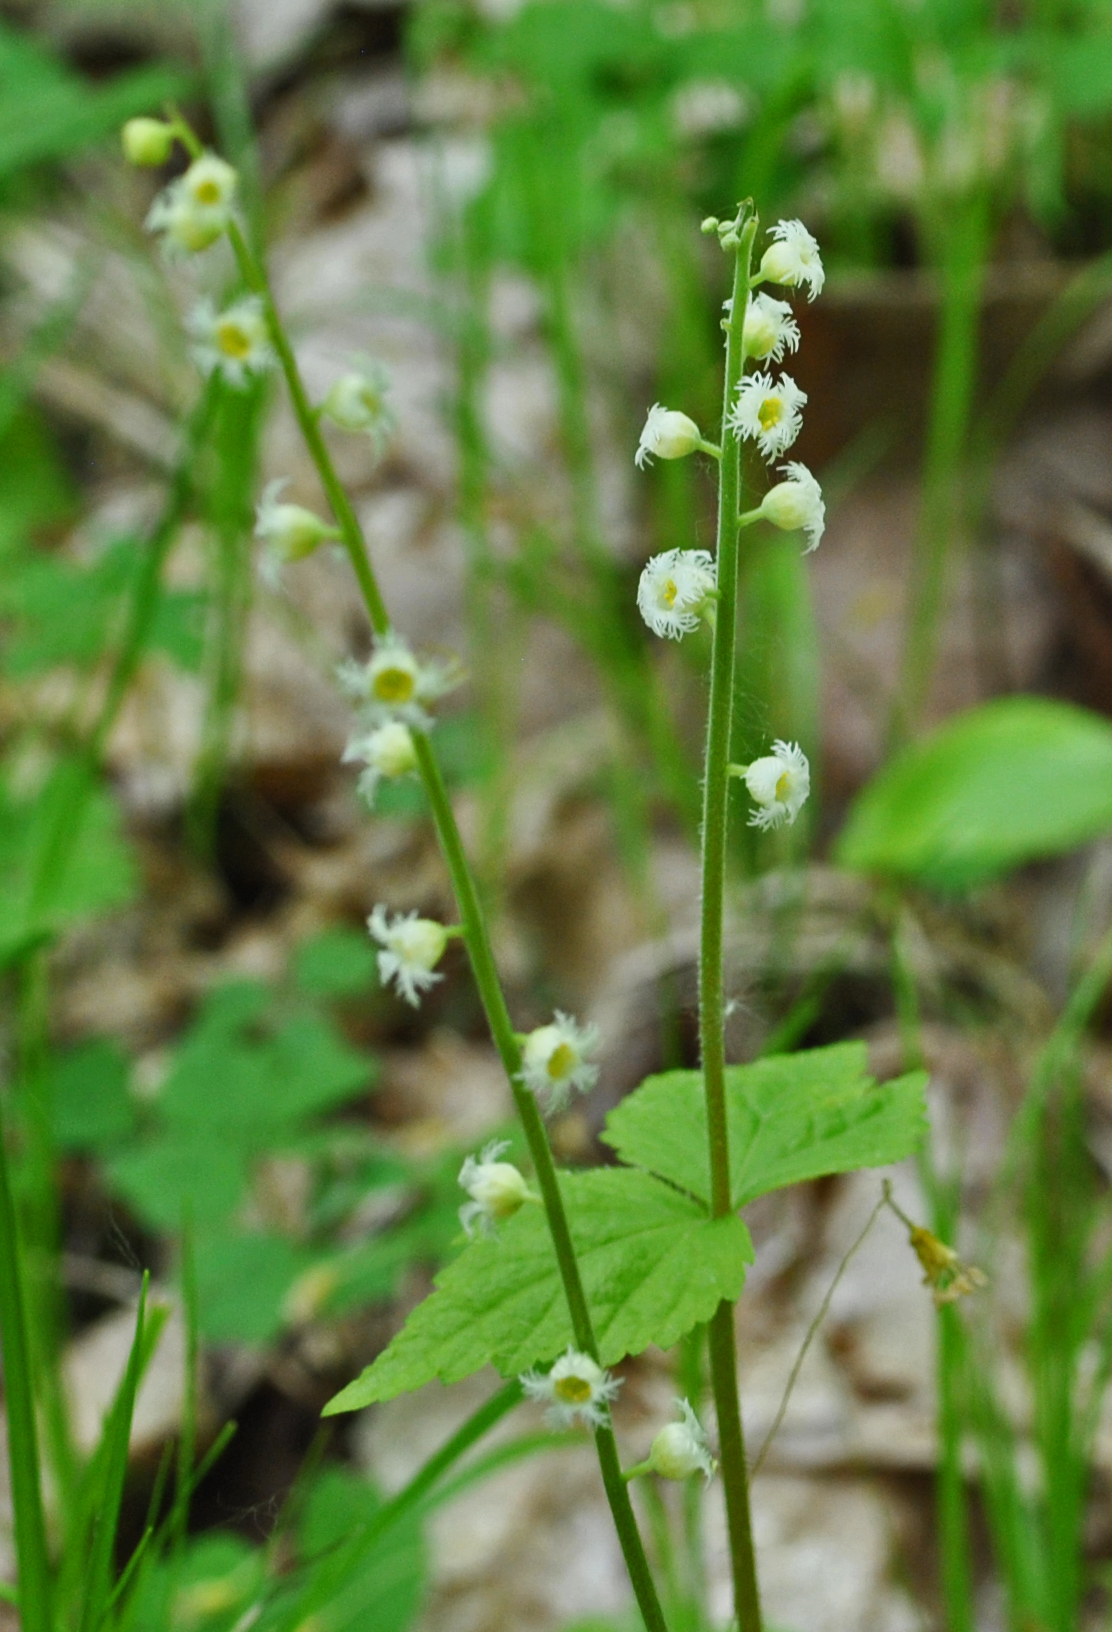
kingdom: Plantae
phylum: Tracheophyta
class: Magnoliopsida
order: Saxifragales
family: Saxifragaceae
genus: Mitella
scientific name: Mitella diphylla
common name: Coolwort
